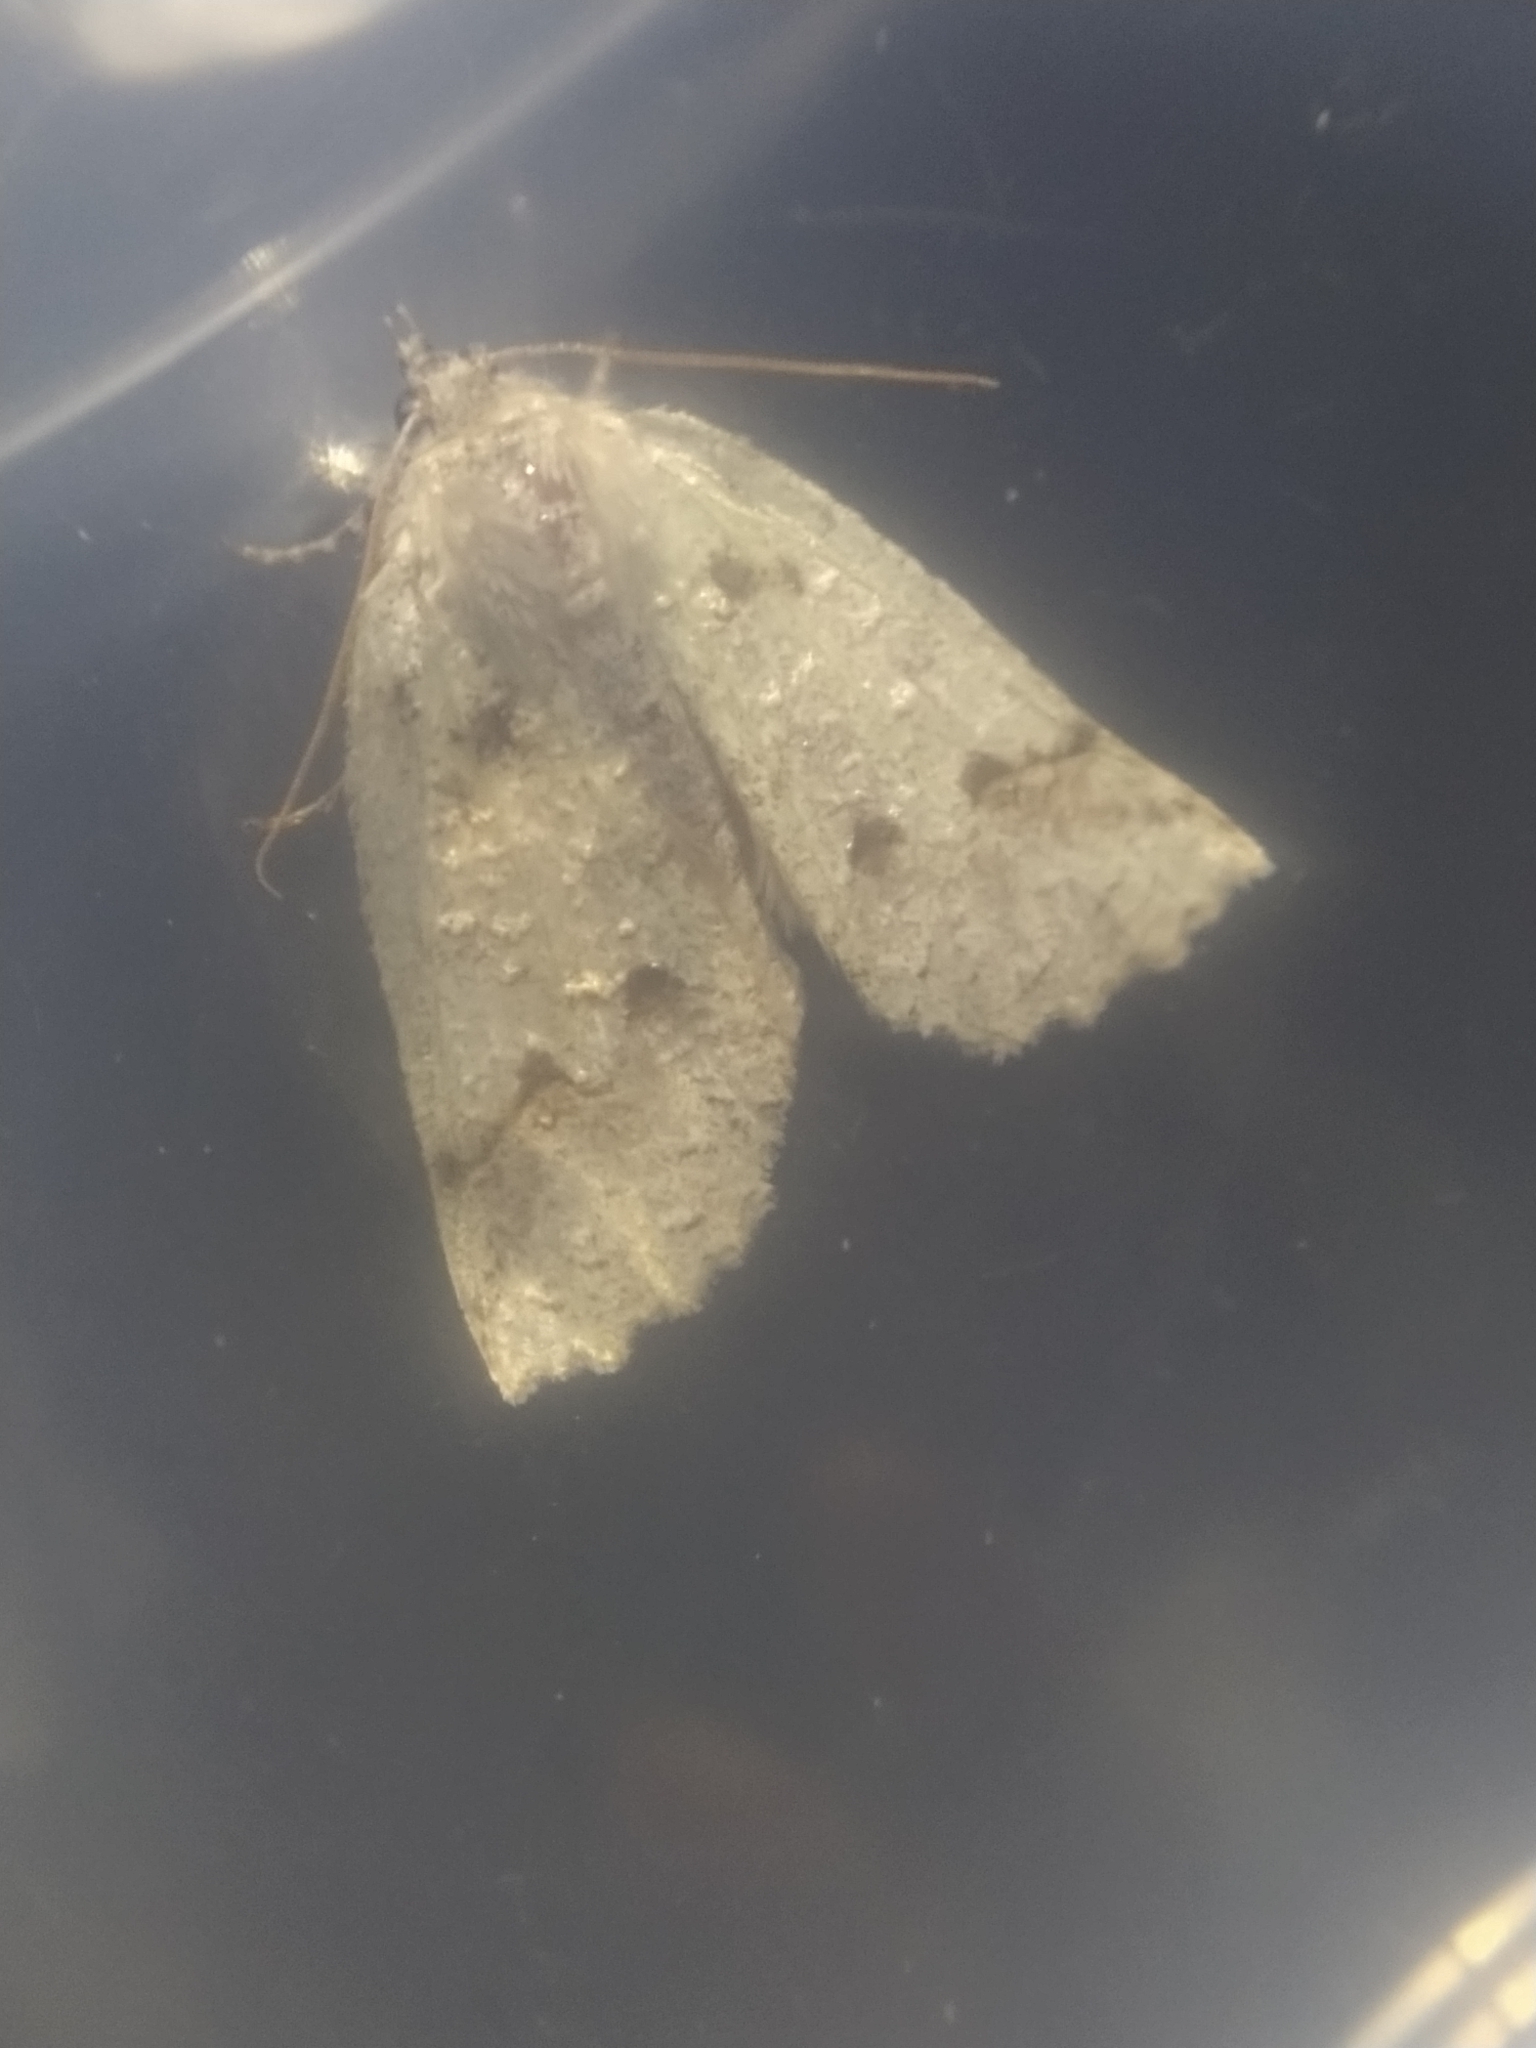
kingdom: Animalia
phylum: Arthropoda
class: Insecta
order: Lepidoptera
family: Geometridae
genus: Declana
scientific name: Declana floccosa
